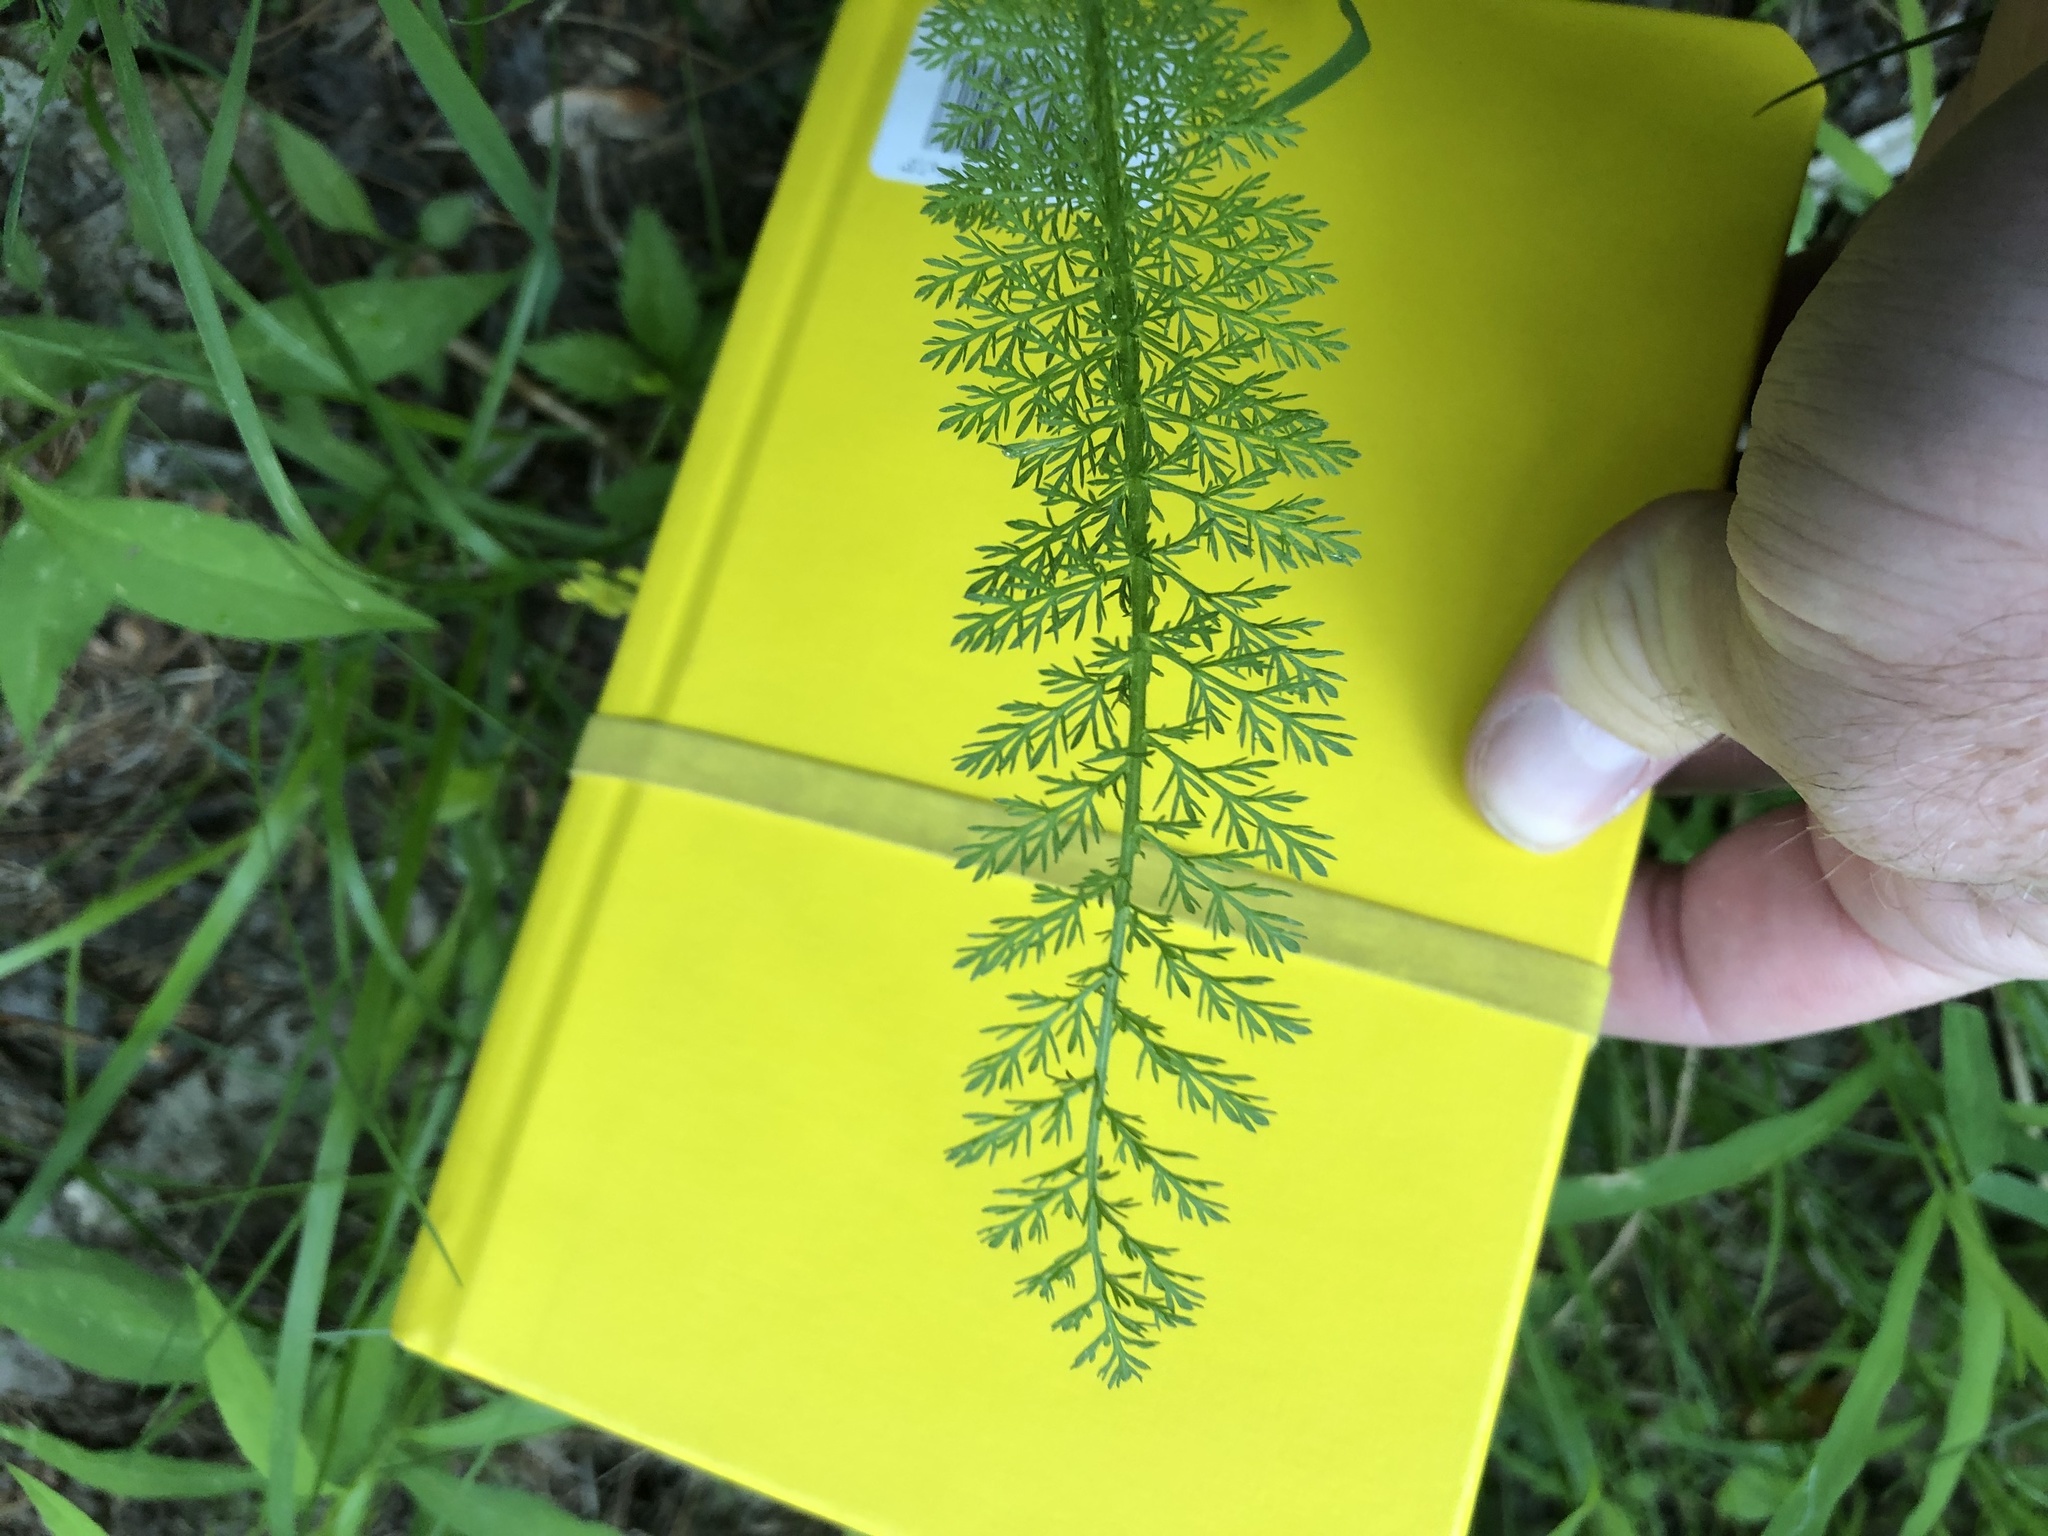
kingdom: Plantae
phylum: Tracheophyta
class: Magnoliopsida
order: Asterales
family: Asteraceae
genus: Achillea
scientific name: Achillea millefolium
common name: Yarrow
